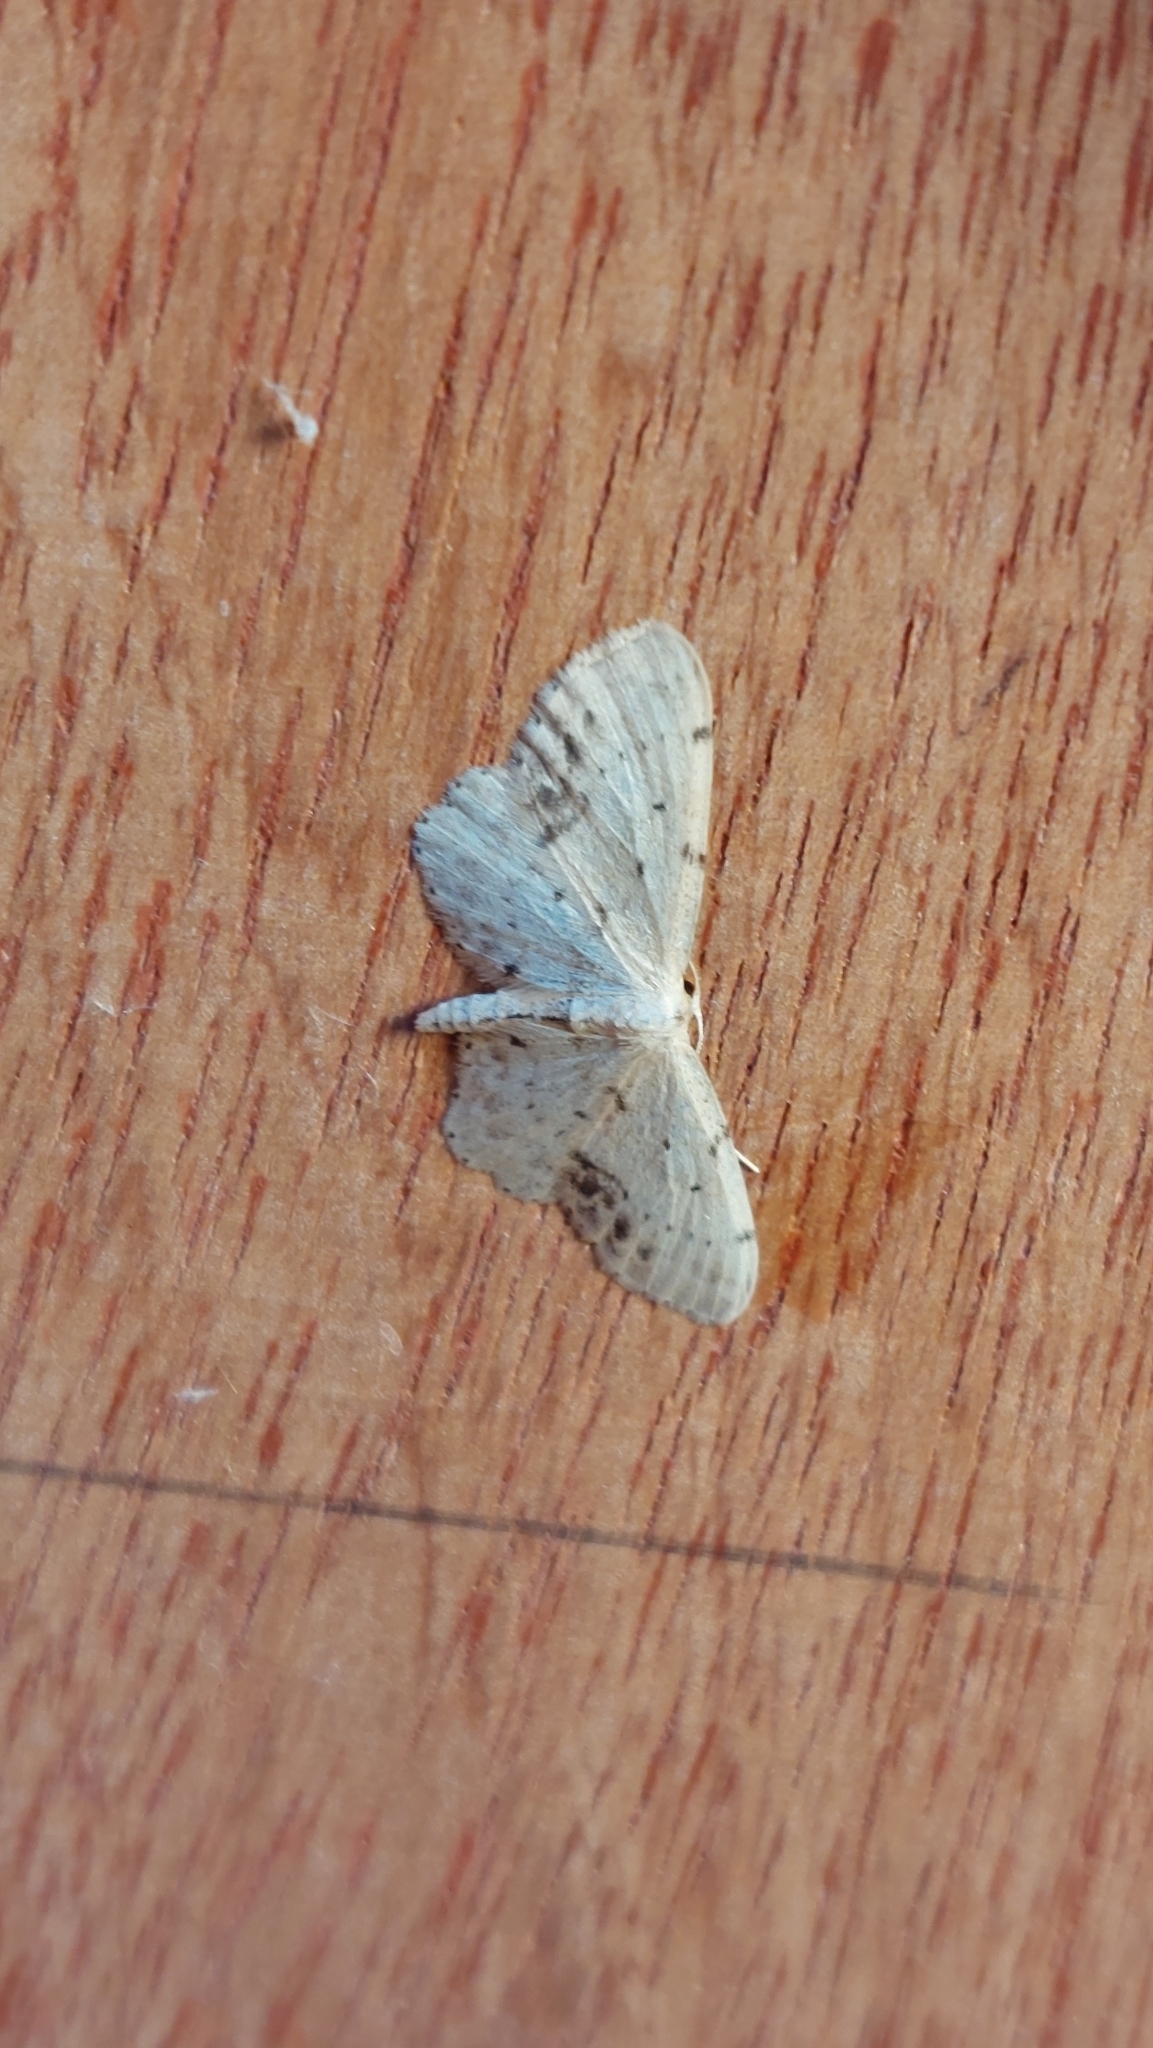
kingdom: Animalia
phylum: Arthropoda
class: Insecta
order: Lepidoptera
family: Geometridae
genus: Idaea
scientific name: Idaea dimidiata
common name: Single-dotted wave
